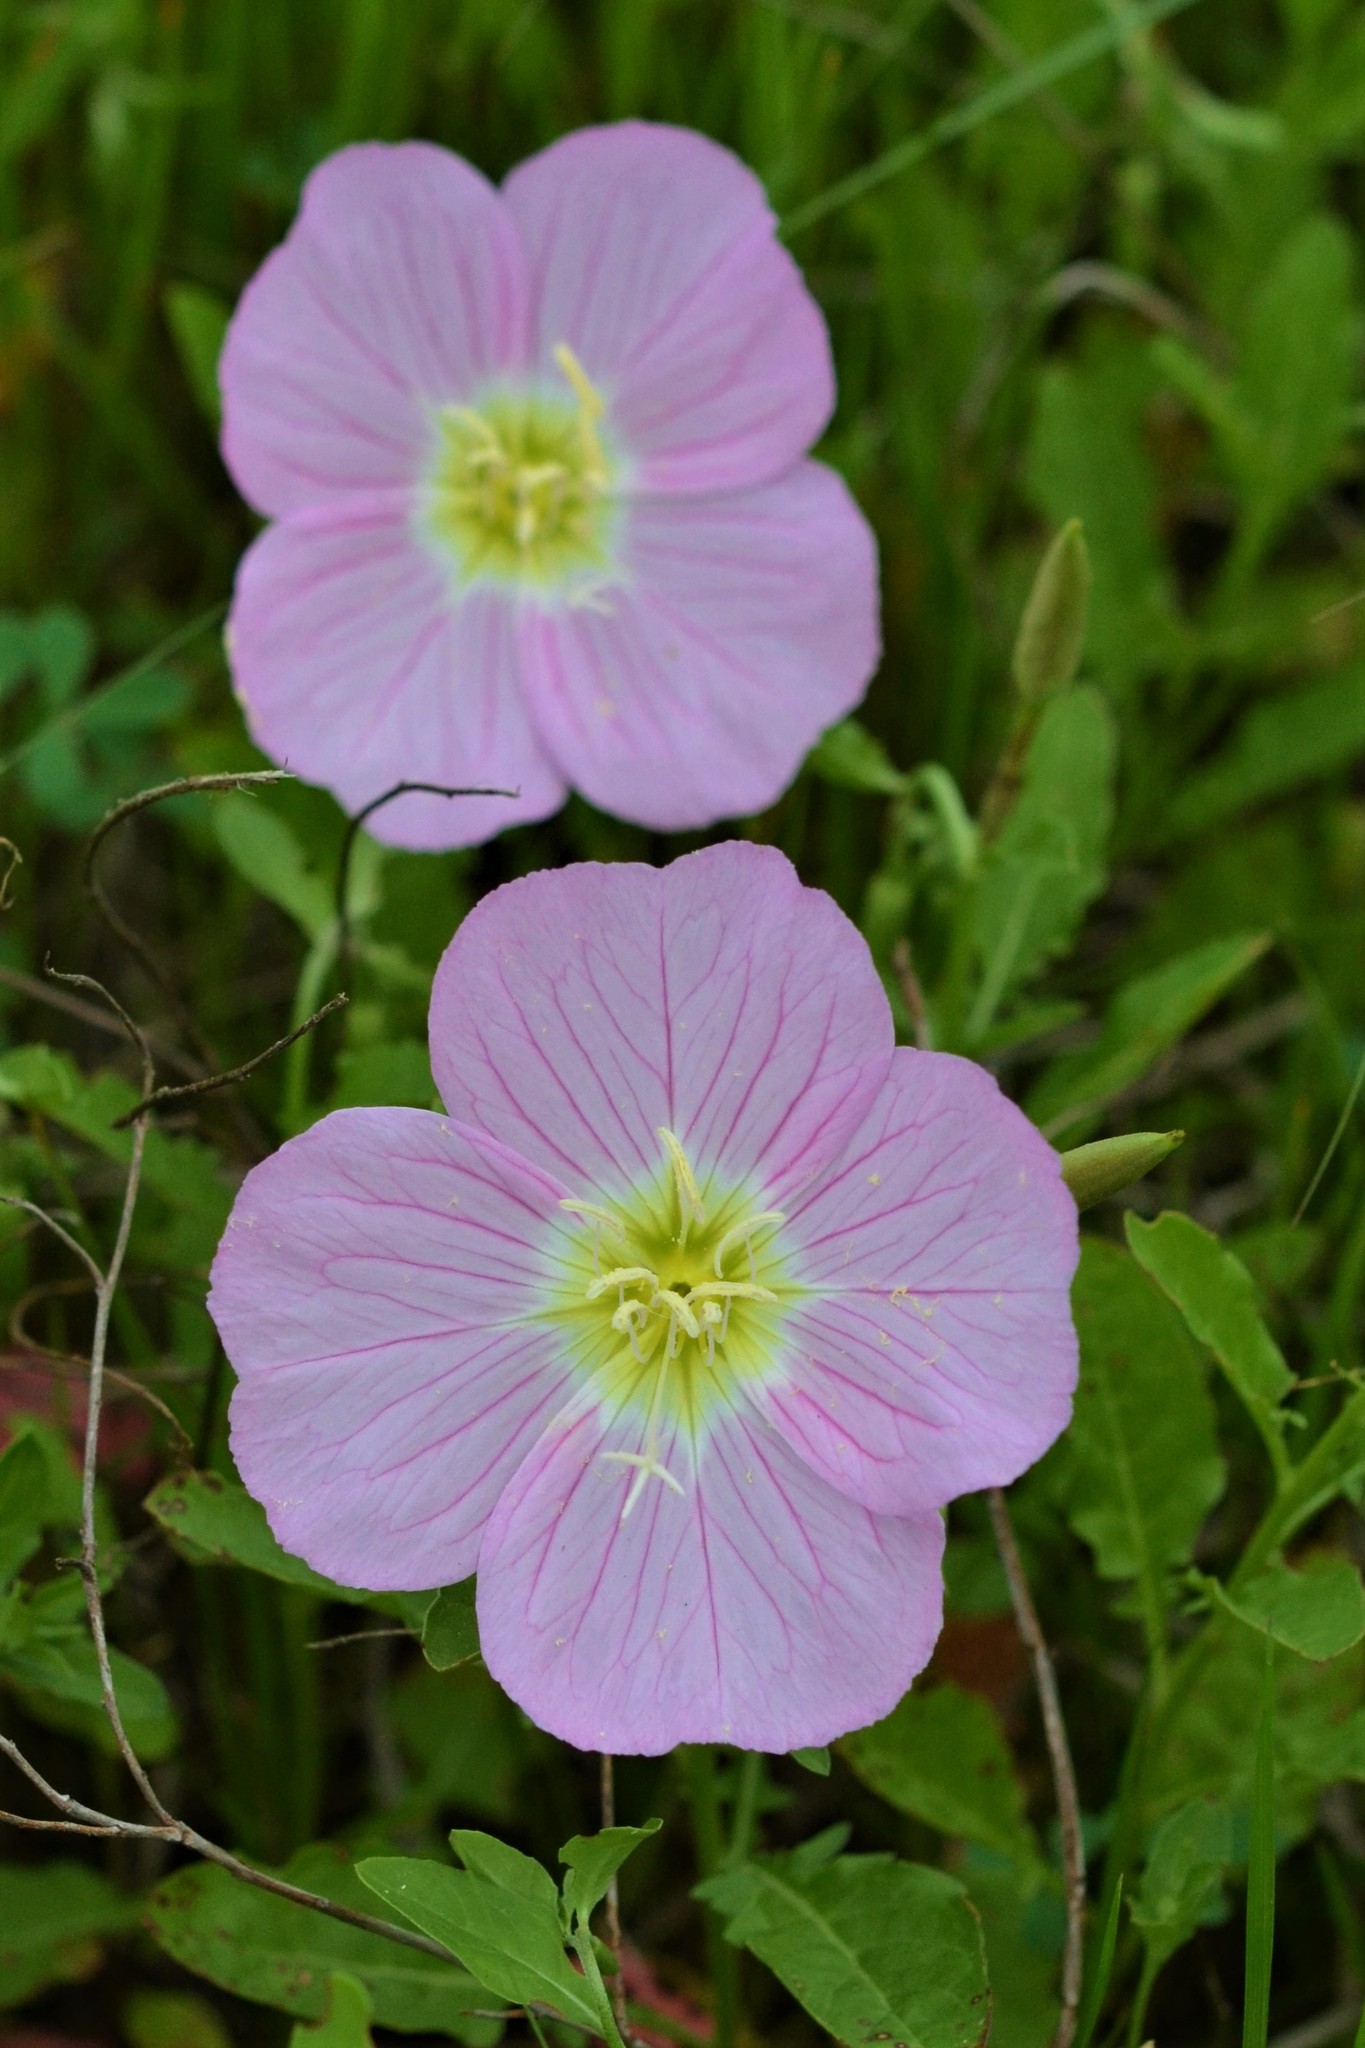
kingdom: Plantae
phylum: Tracheophyta
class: Magnoliopsida
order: Myrtales
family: Onagraceae
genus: Oenothera
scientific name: Oenothera speciosa
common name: White evening-primrose
